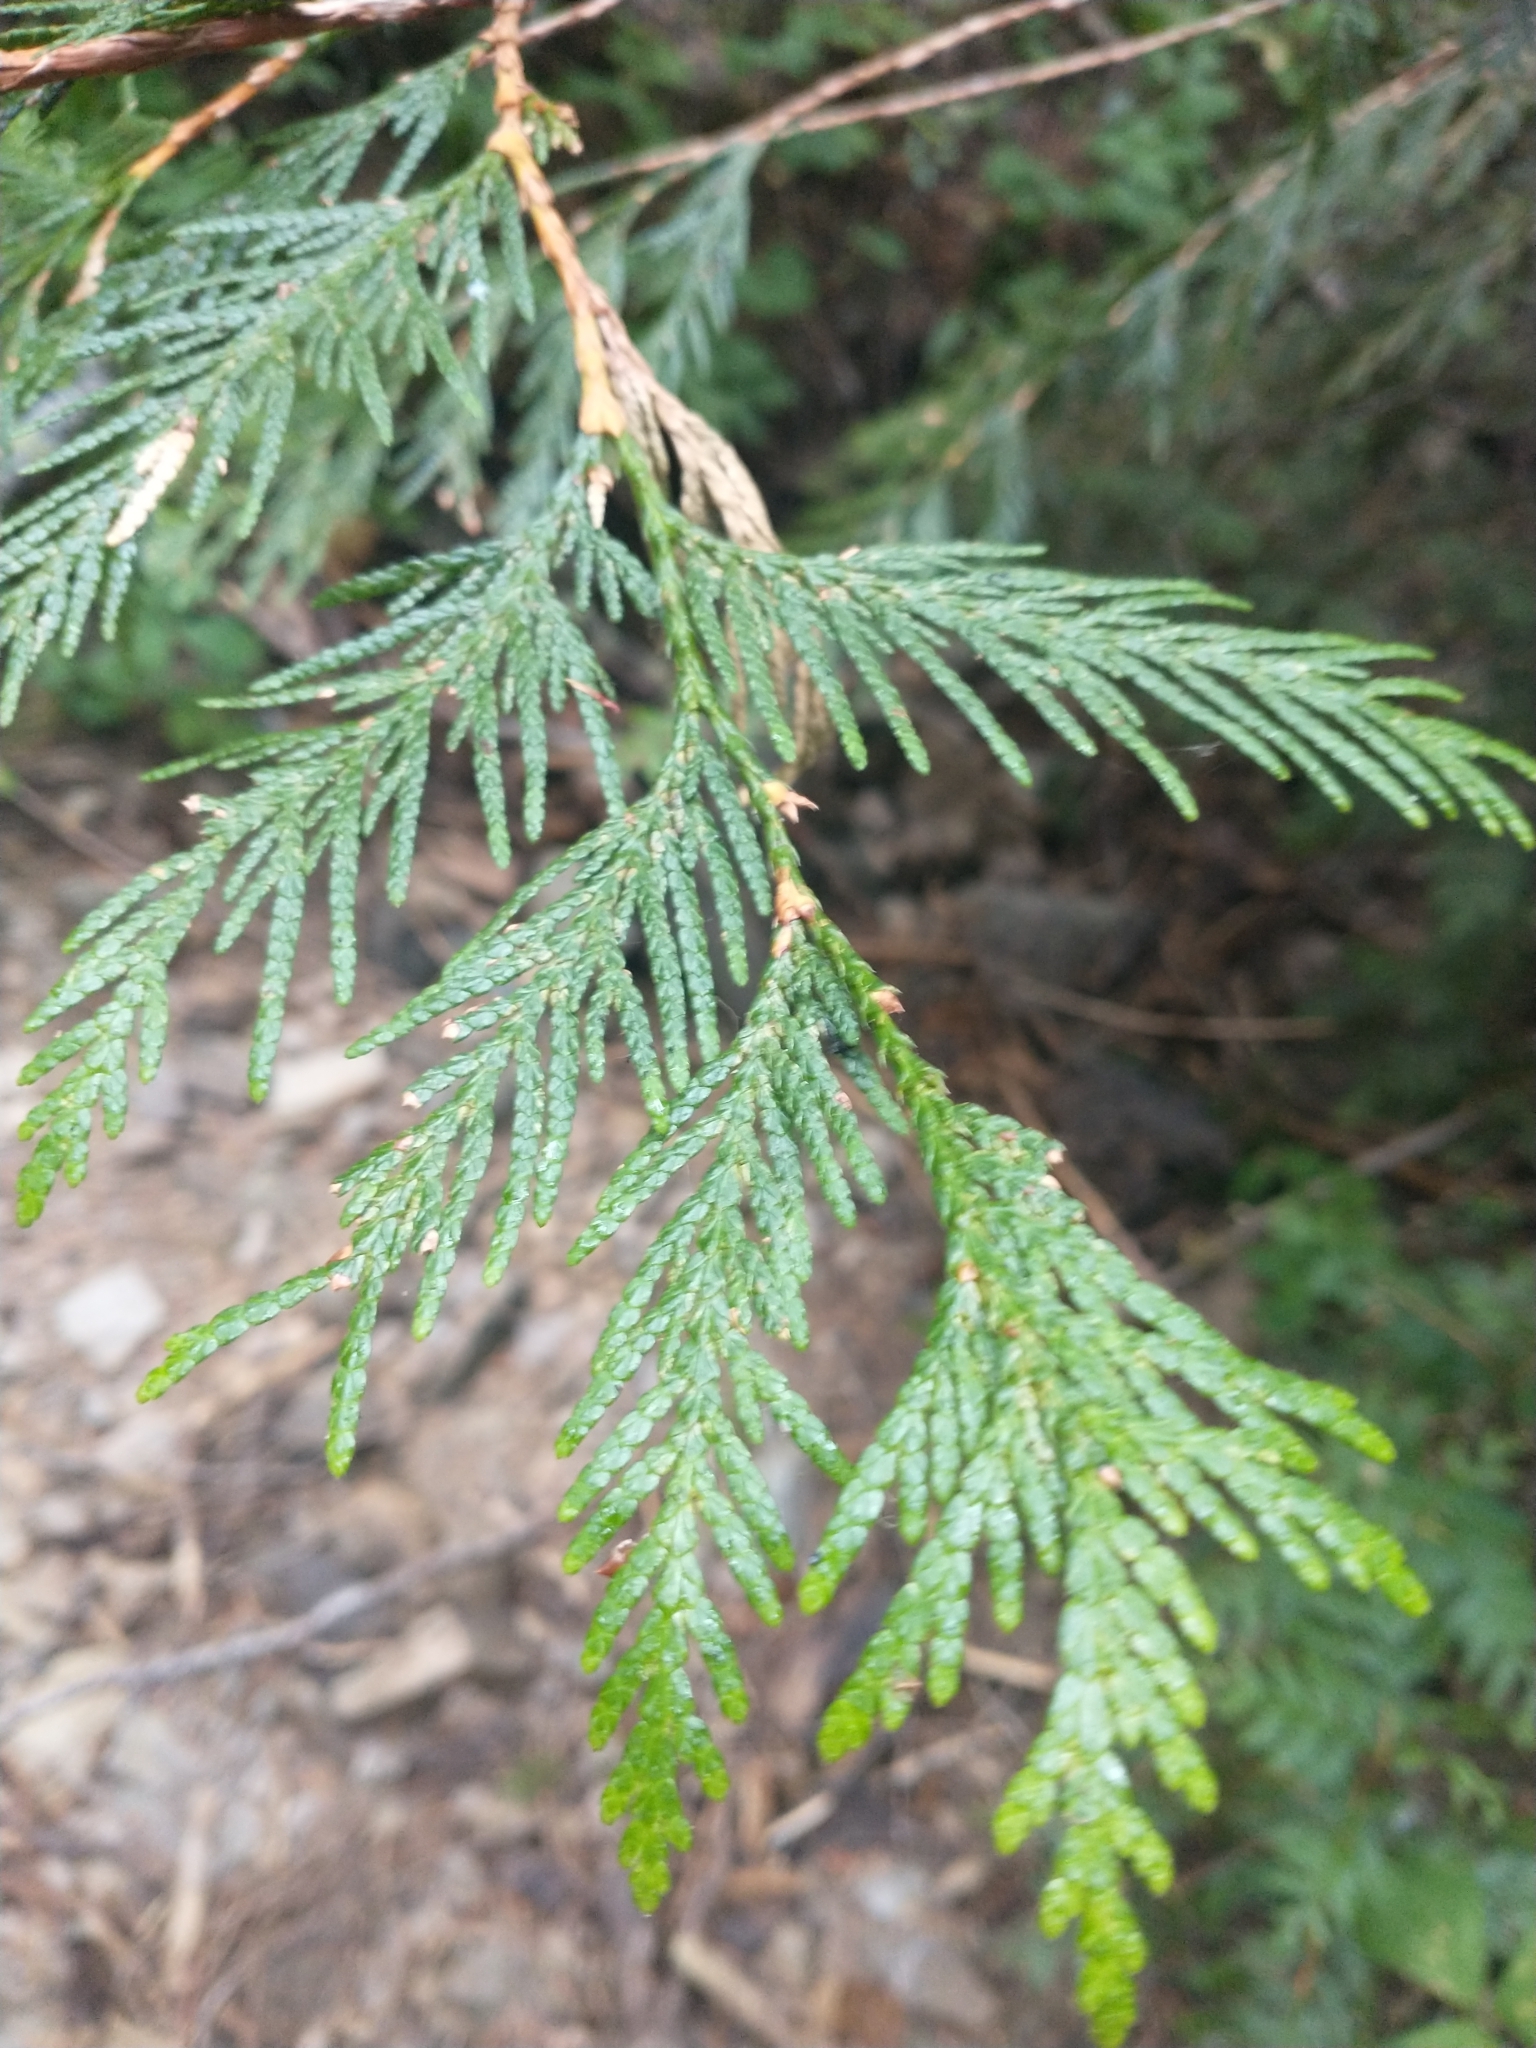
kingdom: Plantae
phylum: Tracheophyta
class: Pinopsida
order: Pinales
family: Cupressaceae
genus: Thuja
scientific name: Thuja plicata
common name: Western red-cedar
